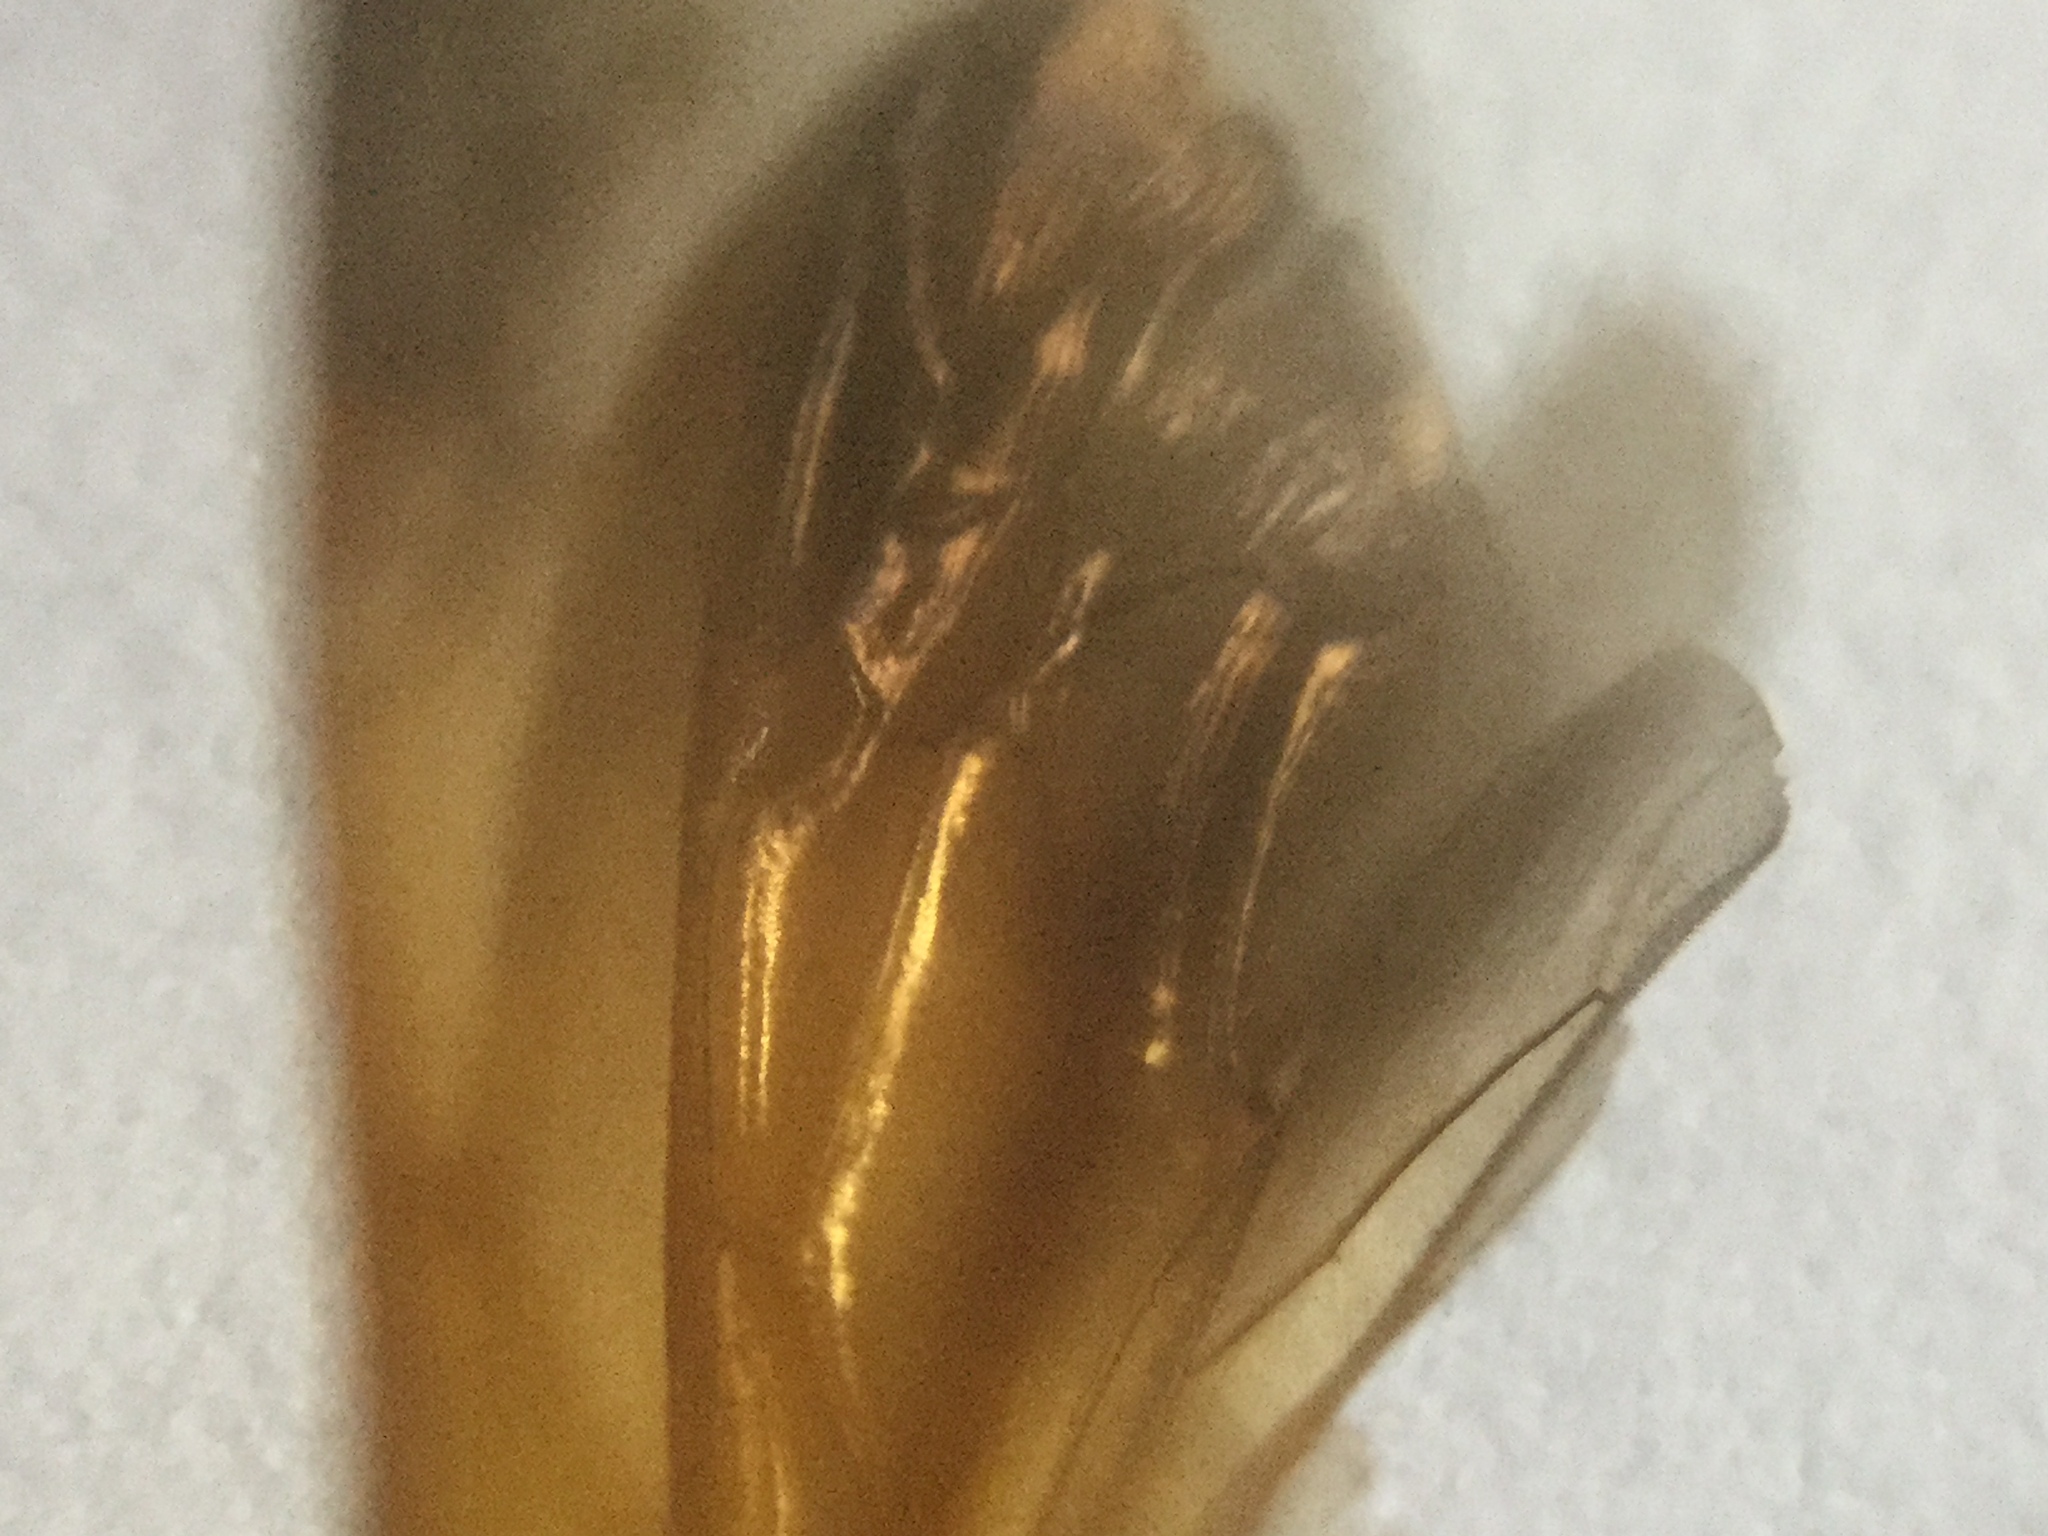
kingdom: Animalia
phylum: Arthropoda
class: Insecta
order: Hymenoptera
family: Crabronidae
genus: Tachytes
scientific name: Tachytes guatemalensis
